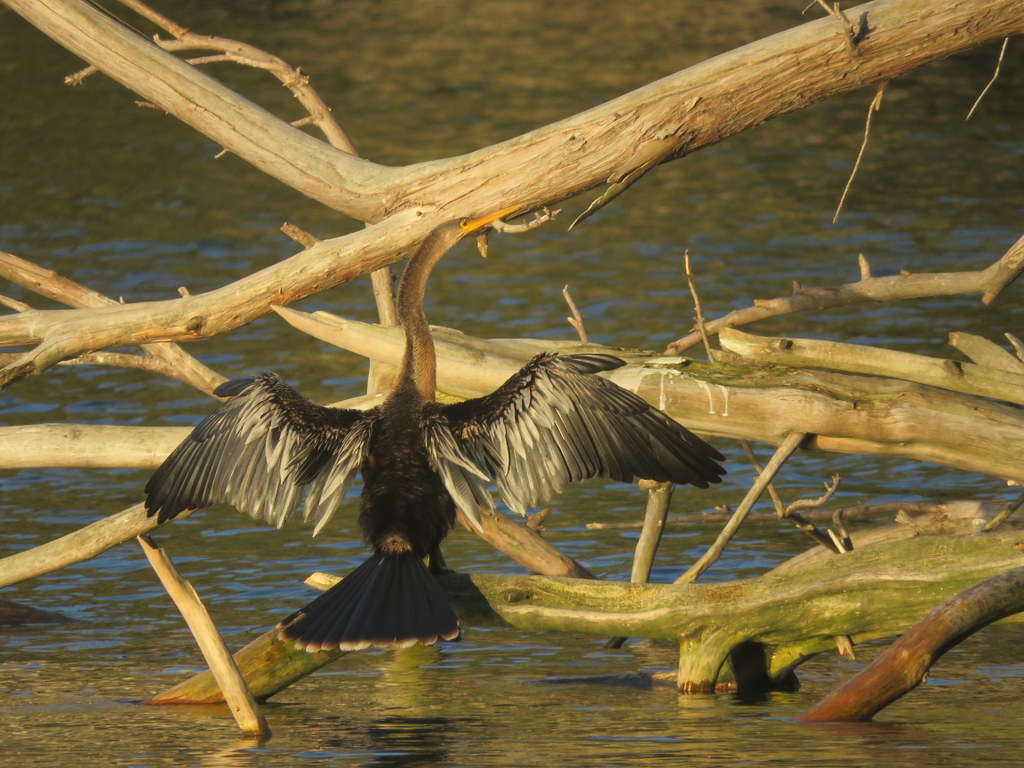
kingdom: Animalia
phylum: Chordata
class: Aves
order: Suliformes
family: Anhingidae
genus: Anhinga
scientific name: Anhinga anhinga
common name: Anhinga
